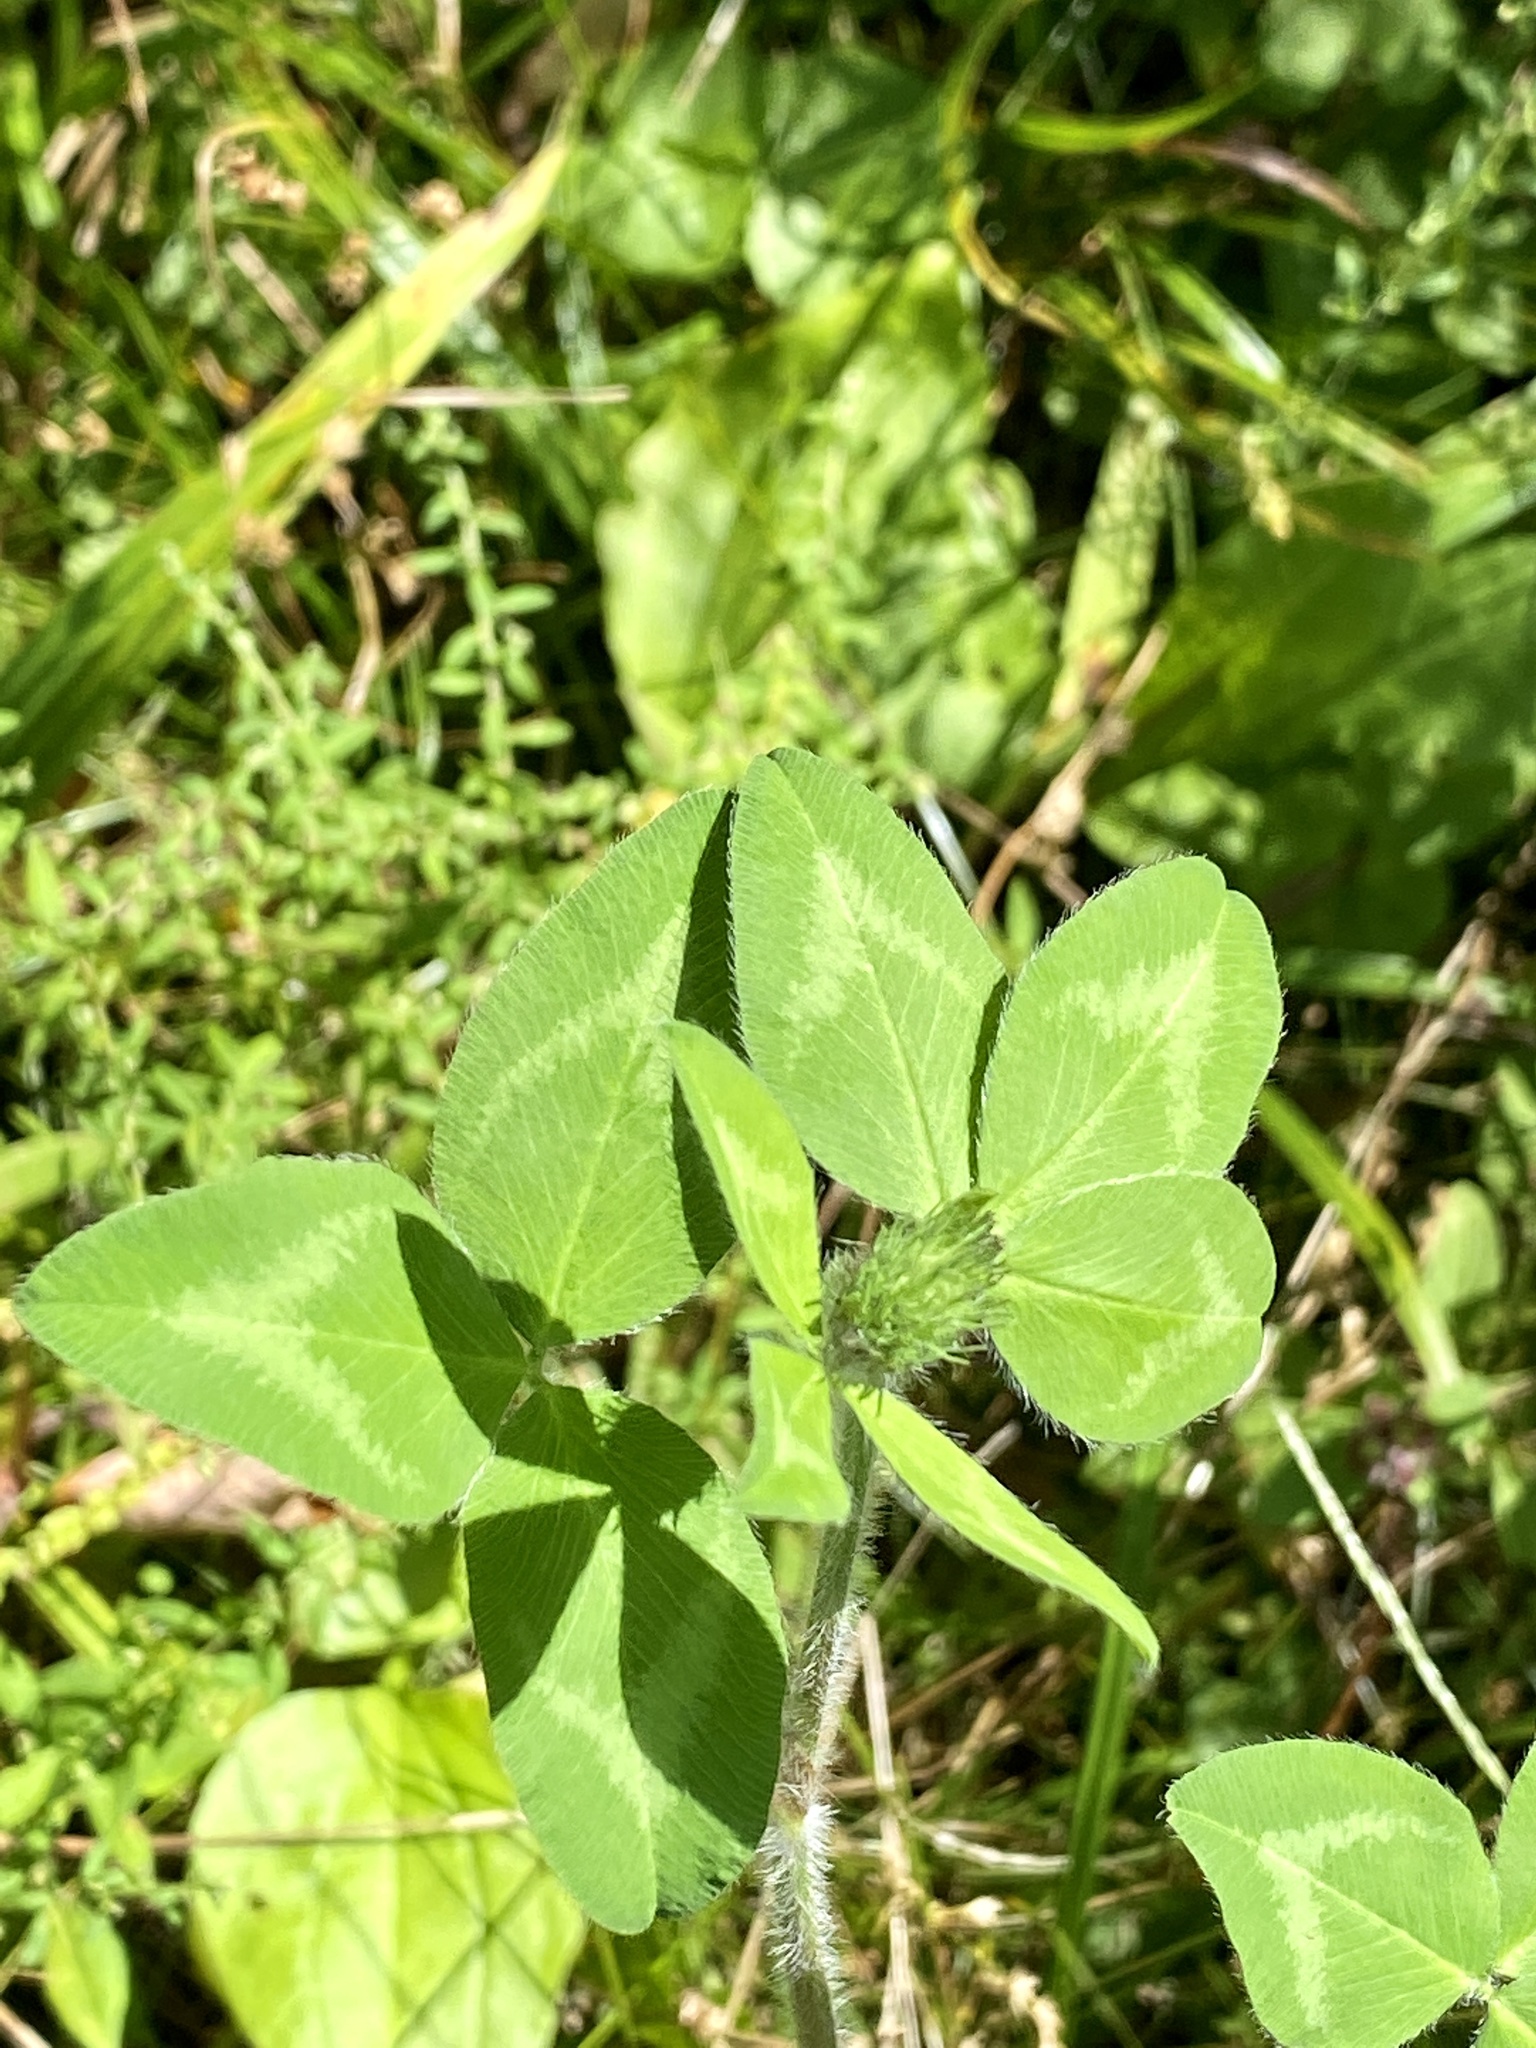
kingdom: Plantae
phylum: Tracheophyta
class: Magnoliopsida
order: Fabales
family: Fabaceae
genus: Trifolium
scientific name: Trifolium pratense
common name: Red clover
